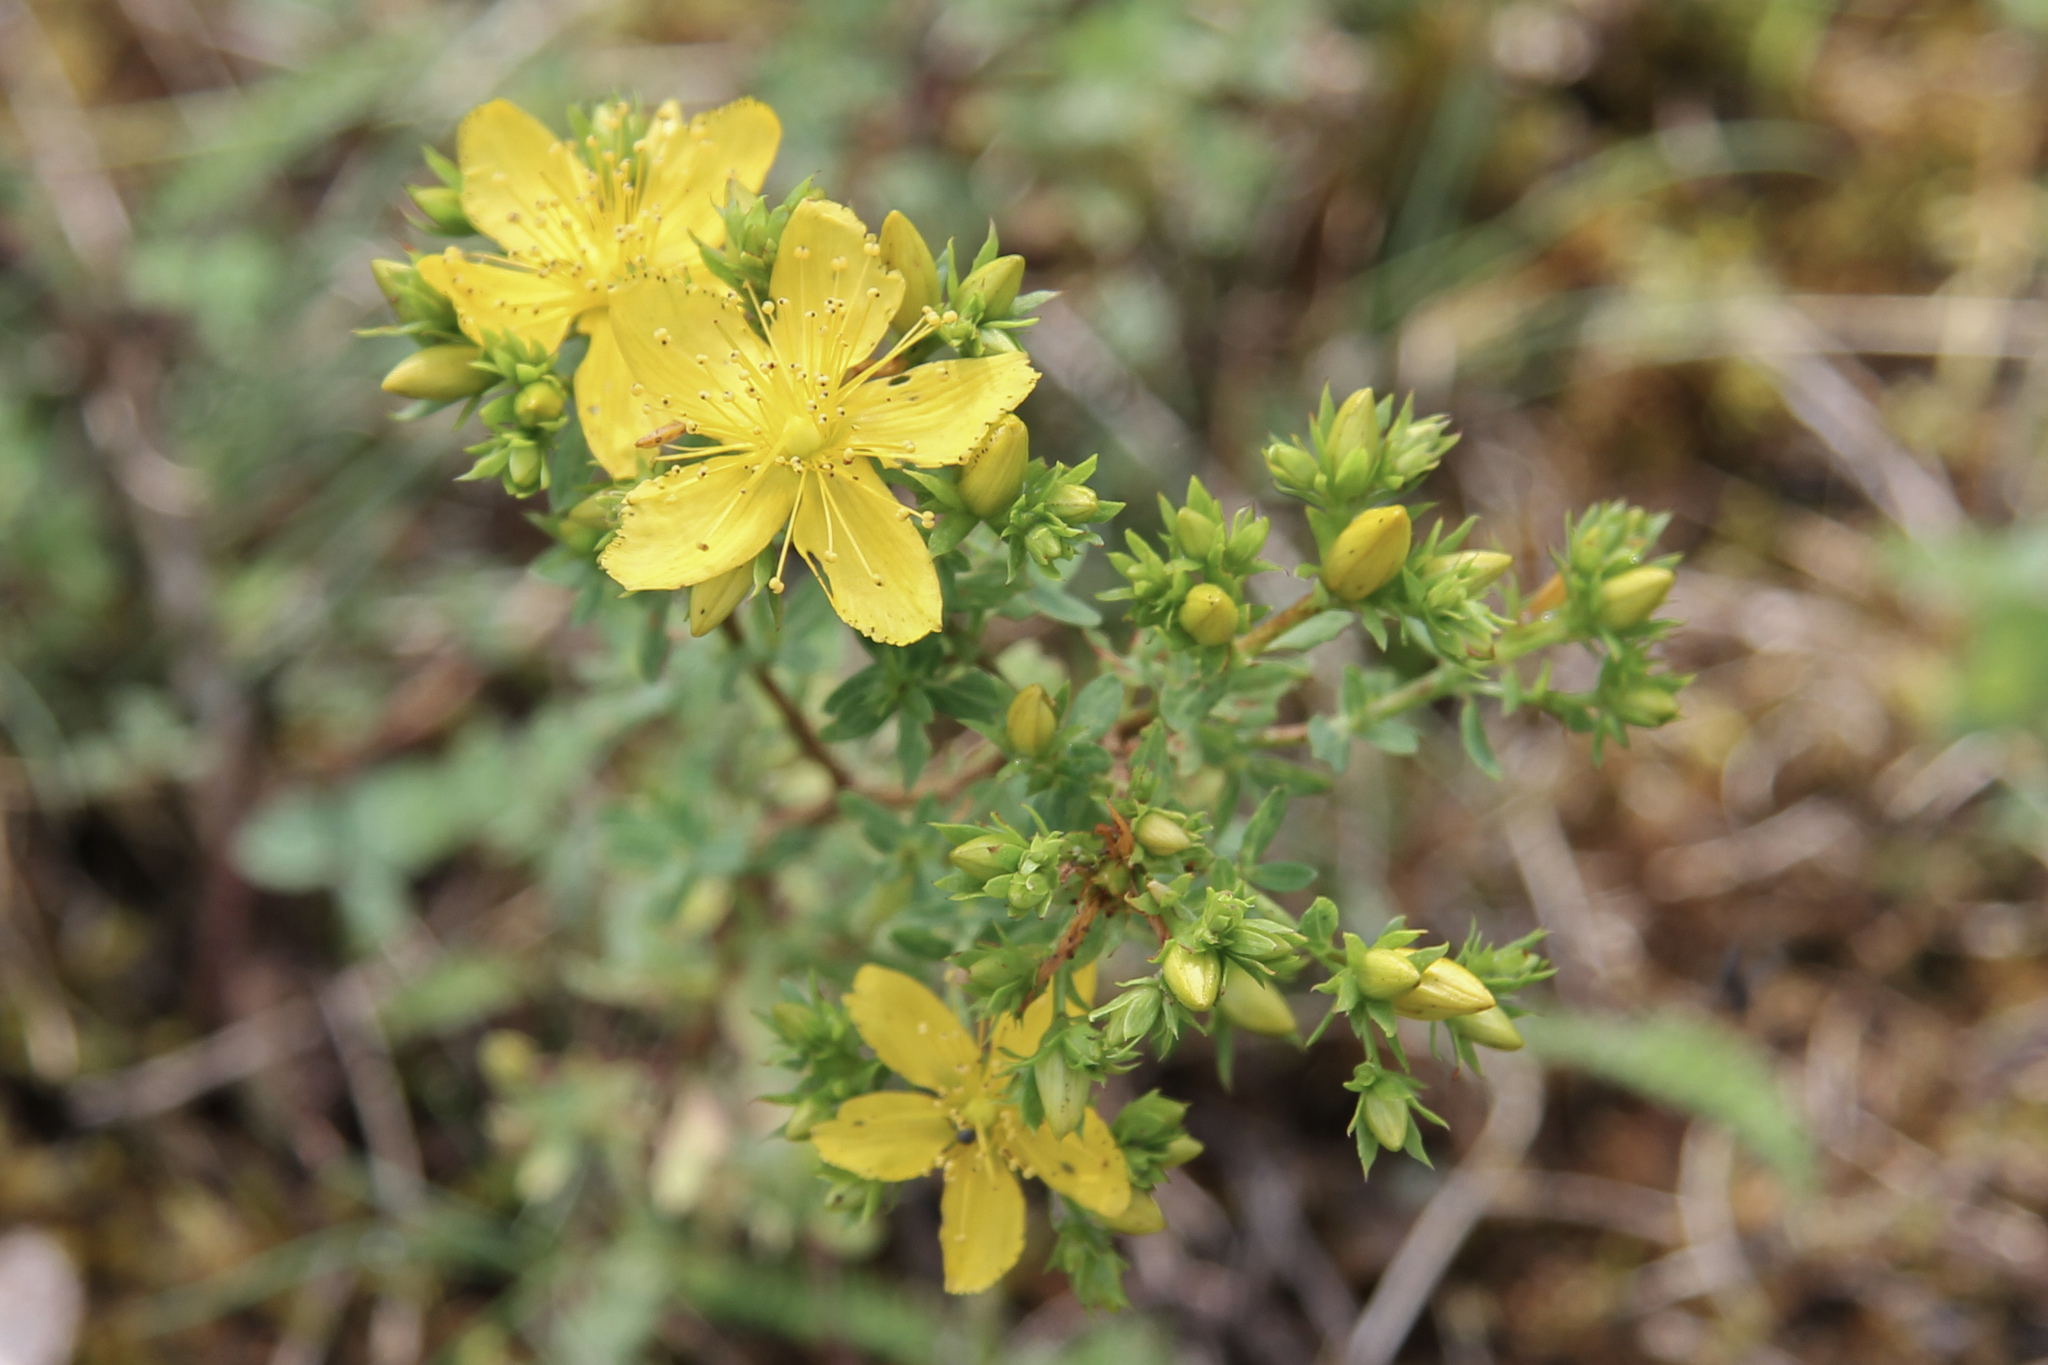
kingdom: Plantae
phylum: Tracheophyta
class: Magnoliopsida
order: Malpighiales
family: Hypericaceae
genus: Hypericum
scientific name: Hypericum perforatum
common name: Common st. johnswort
